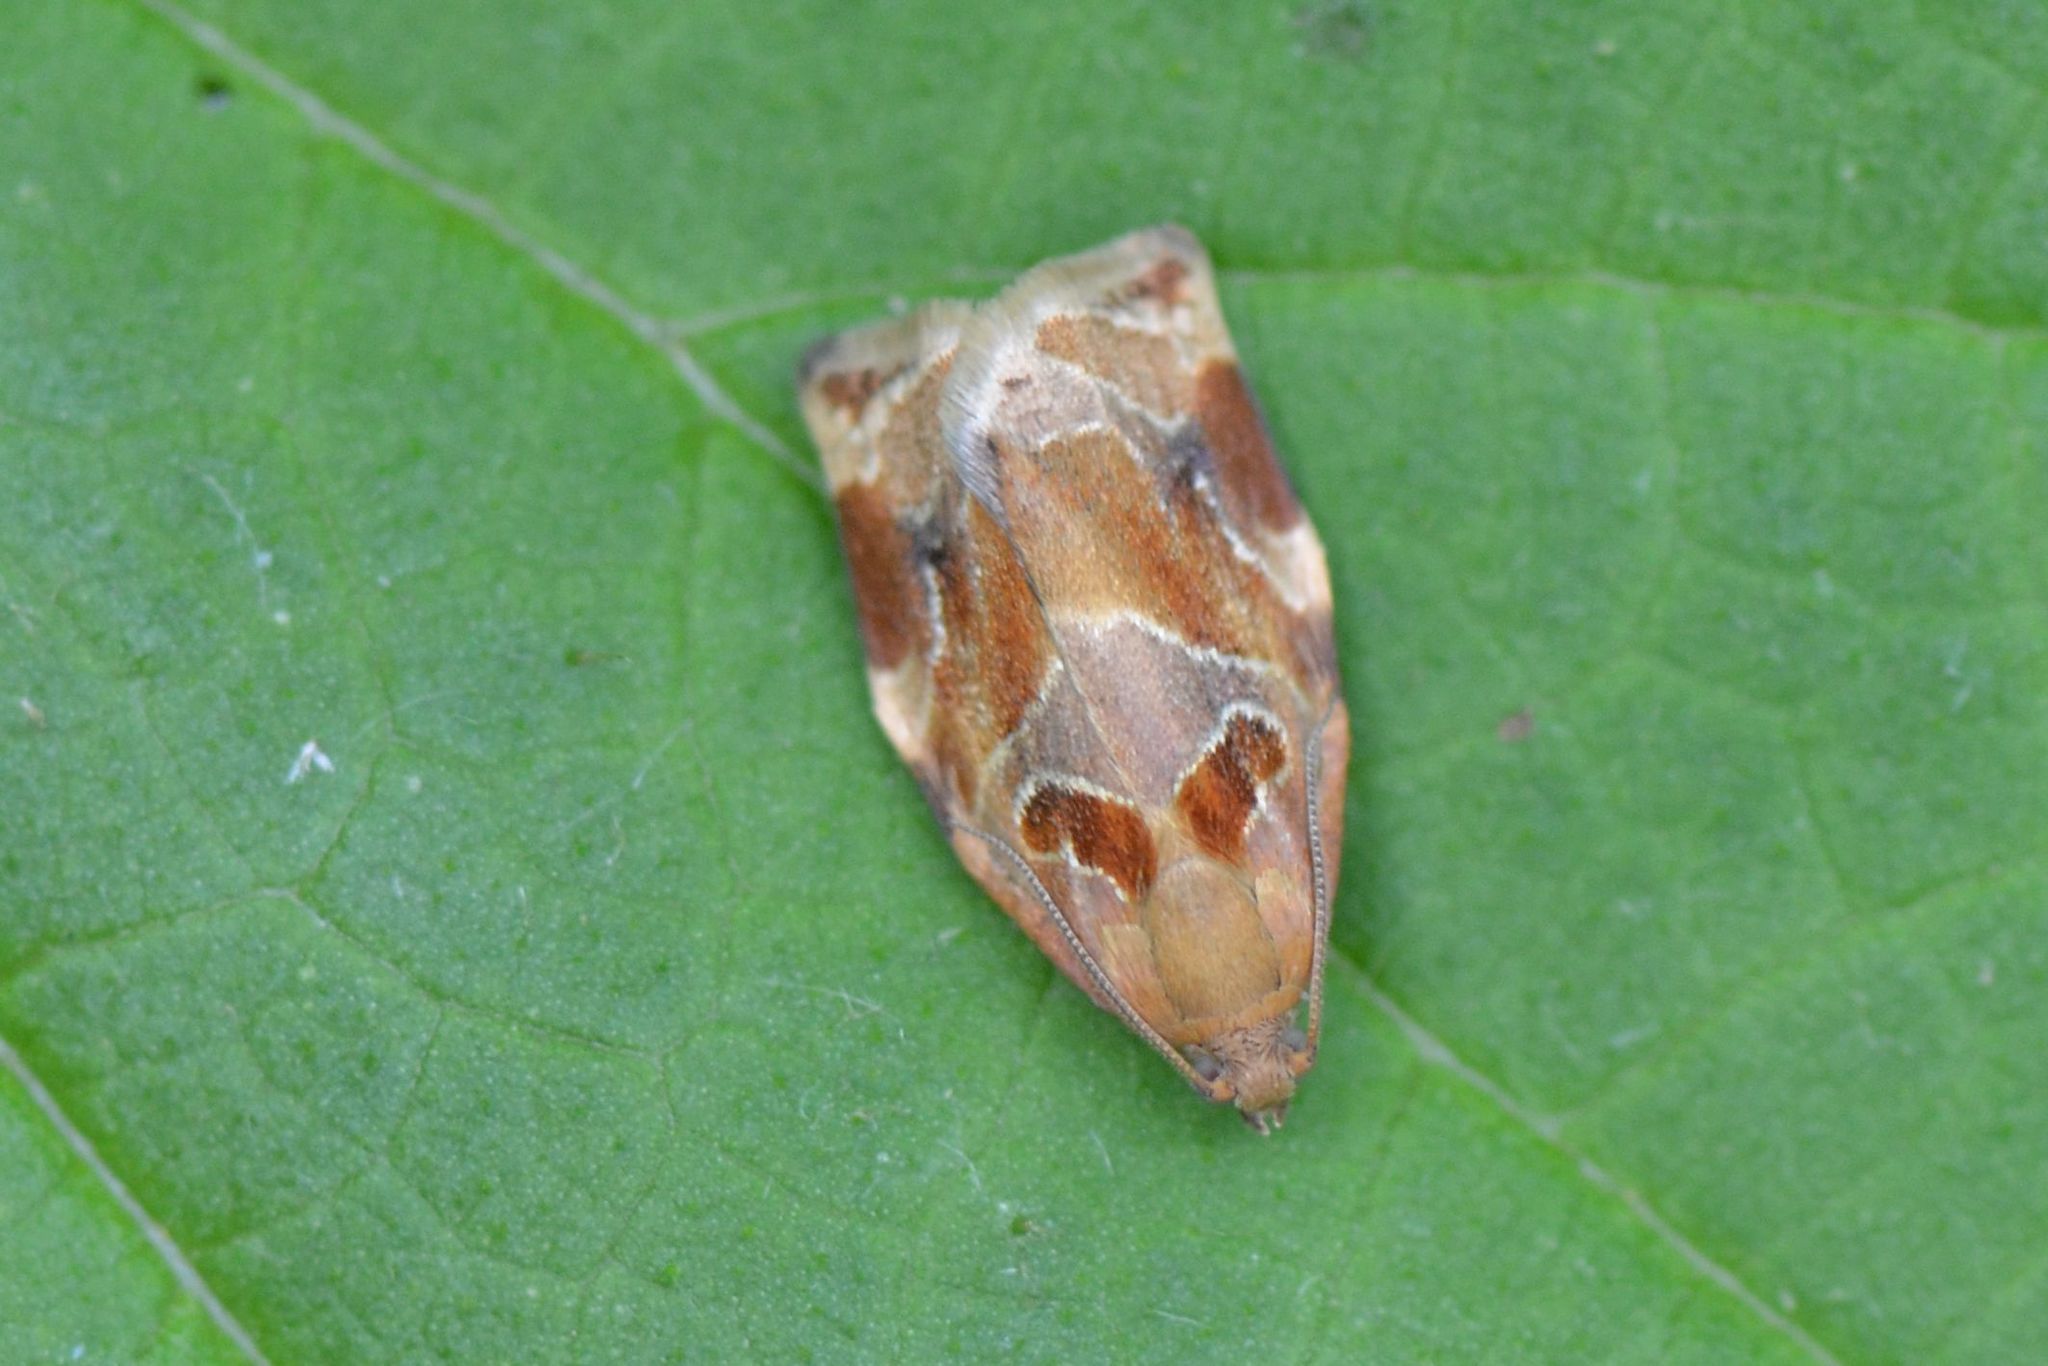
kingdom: Animalia
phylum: Arthropoda
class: Insecta
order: Lepidoptera
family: Tortricidae
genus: Archips
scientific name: Archips xylosteana
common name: Variegated golden tortrix
